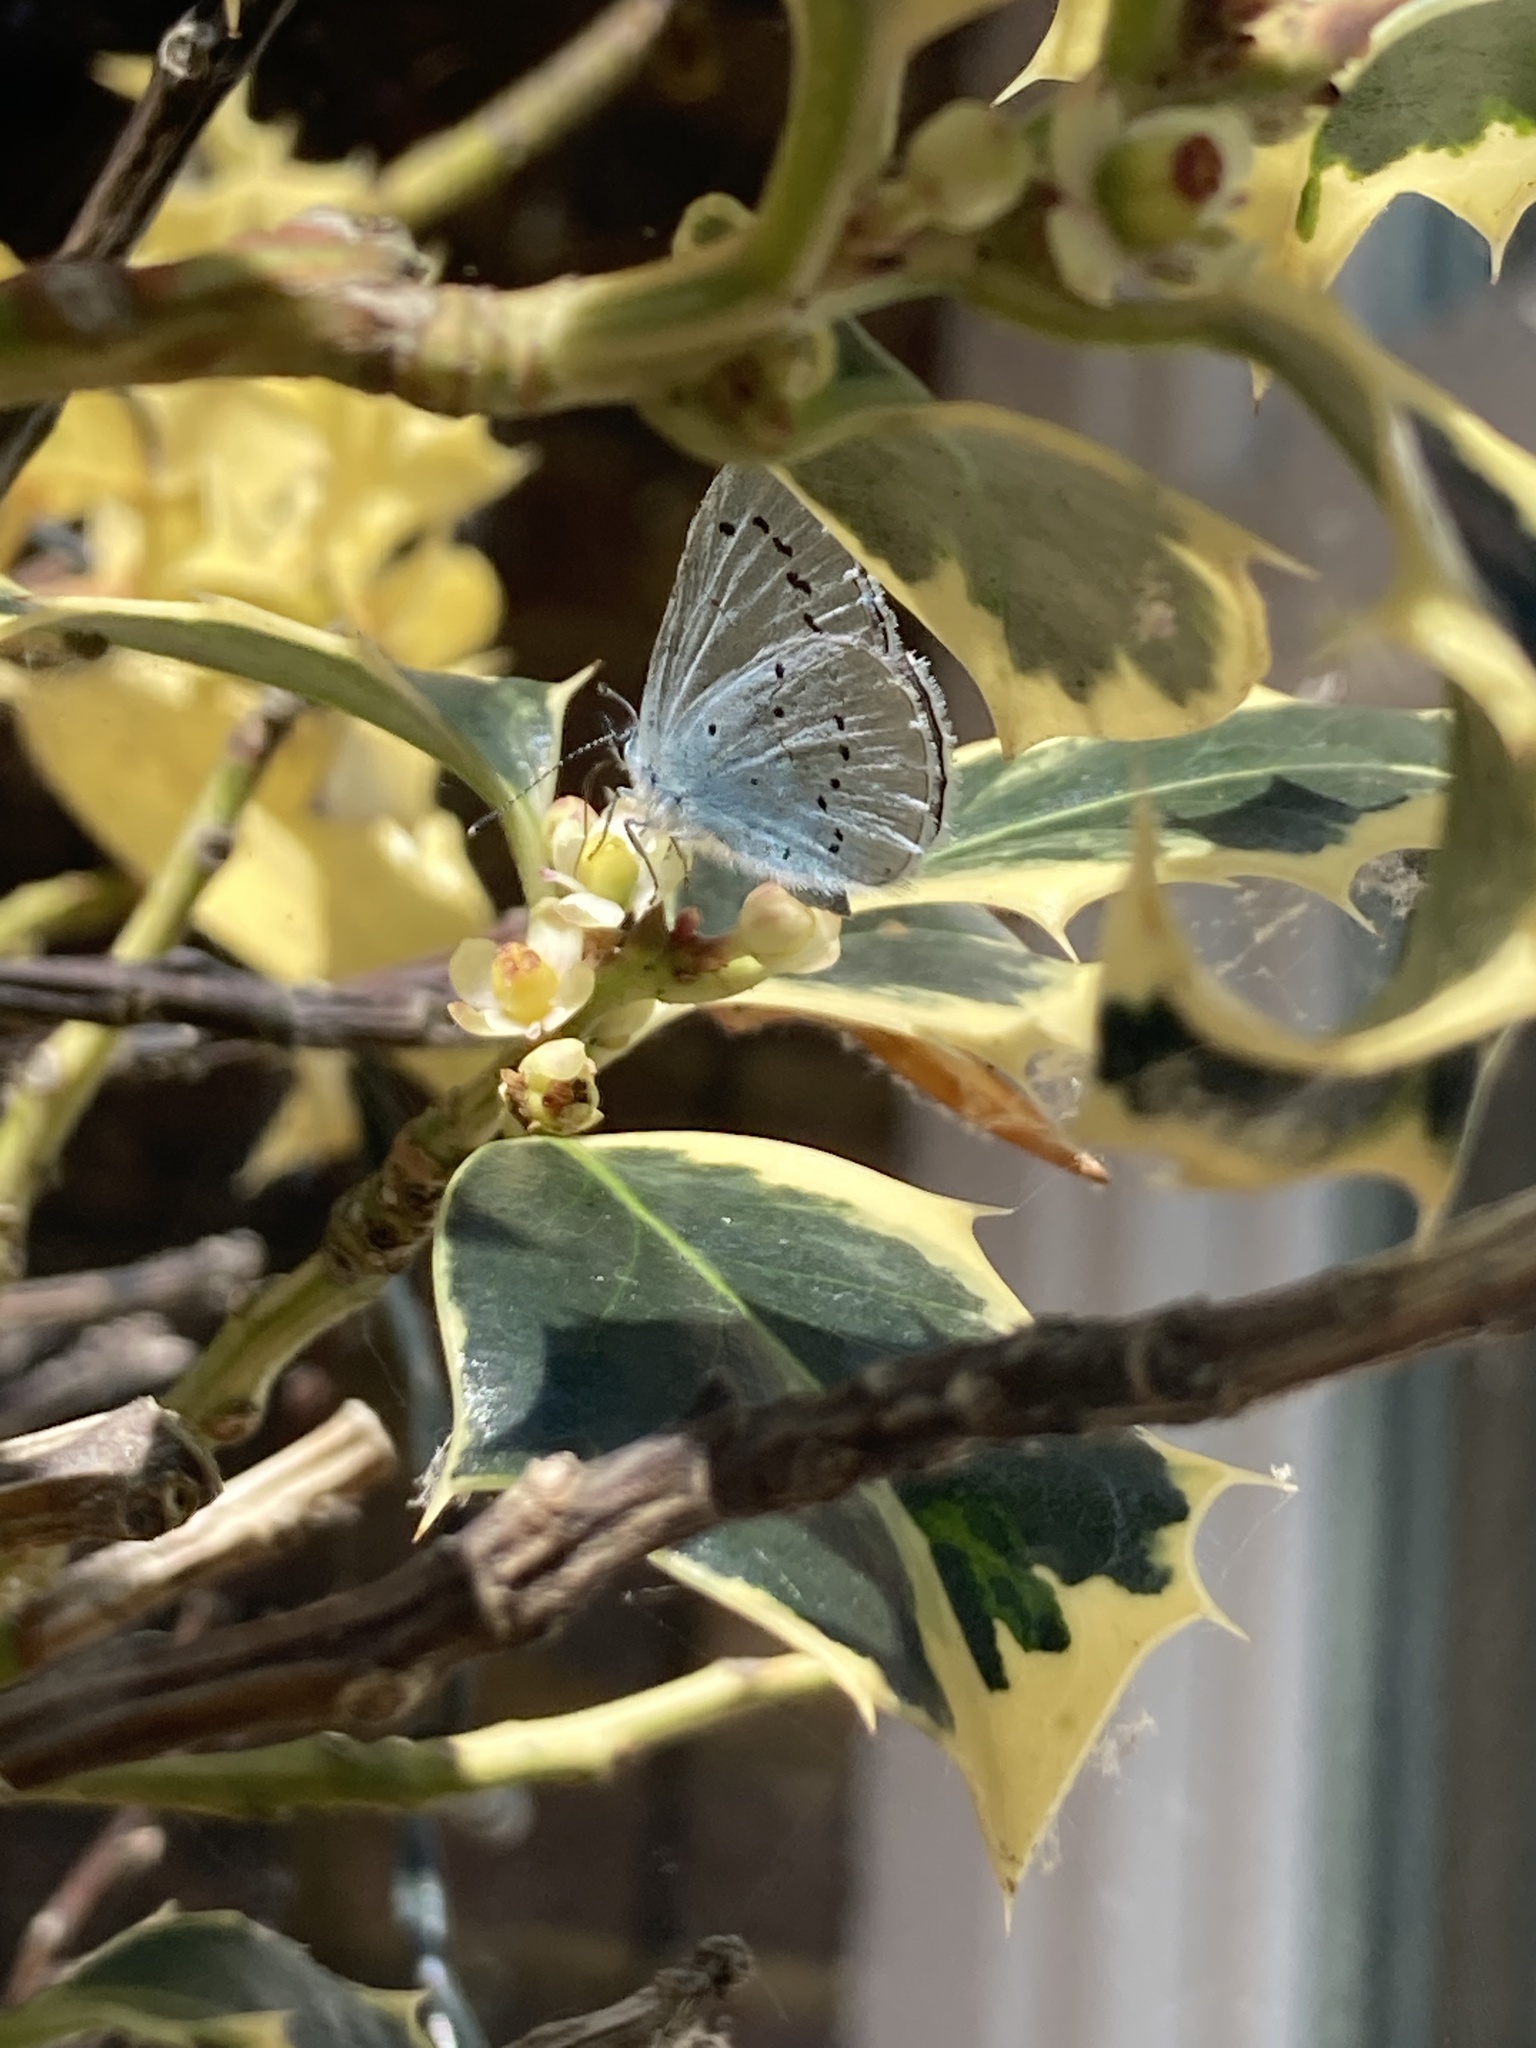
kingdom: Animalia
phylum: Arthropoda
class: Insecta
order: Lepidoptera
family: Lycaenidae
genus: Celastrina
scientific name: Celastrina argiolus
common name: Holly blue
